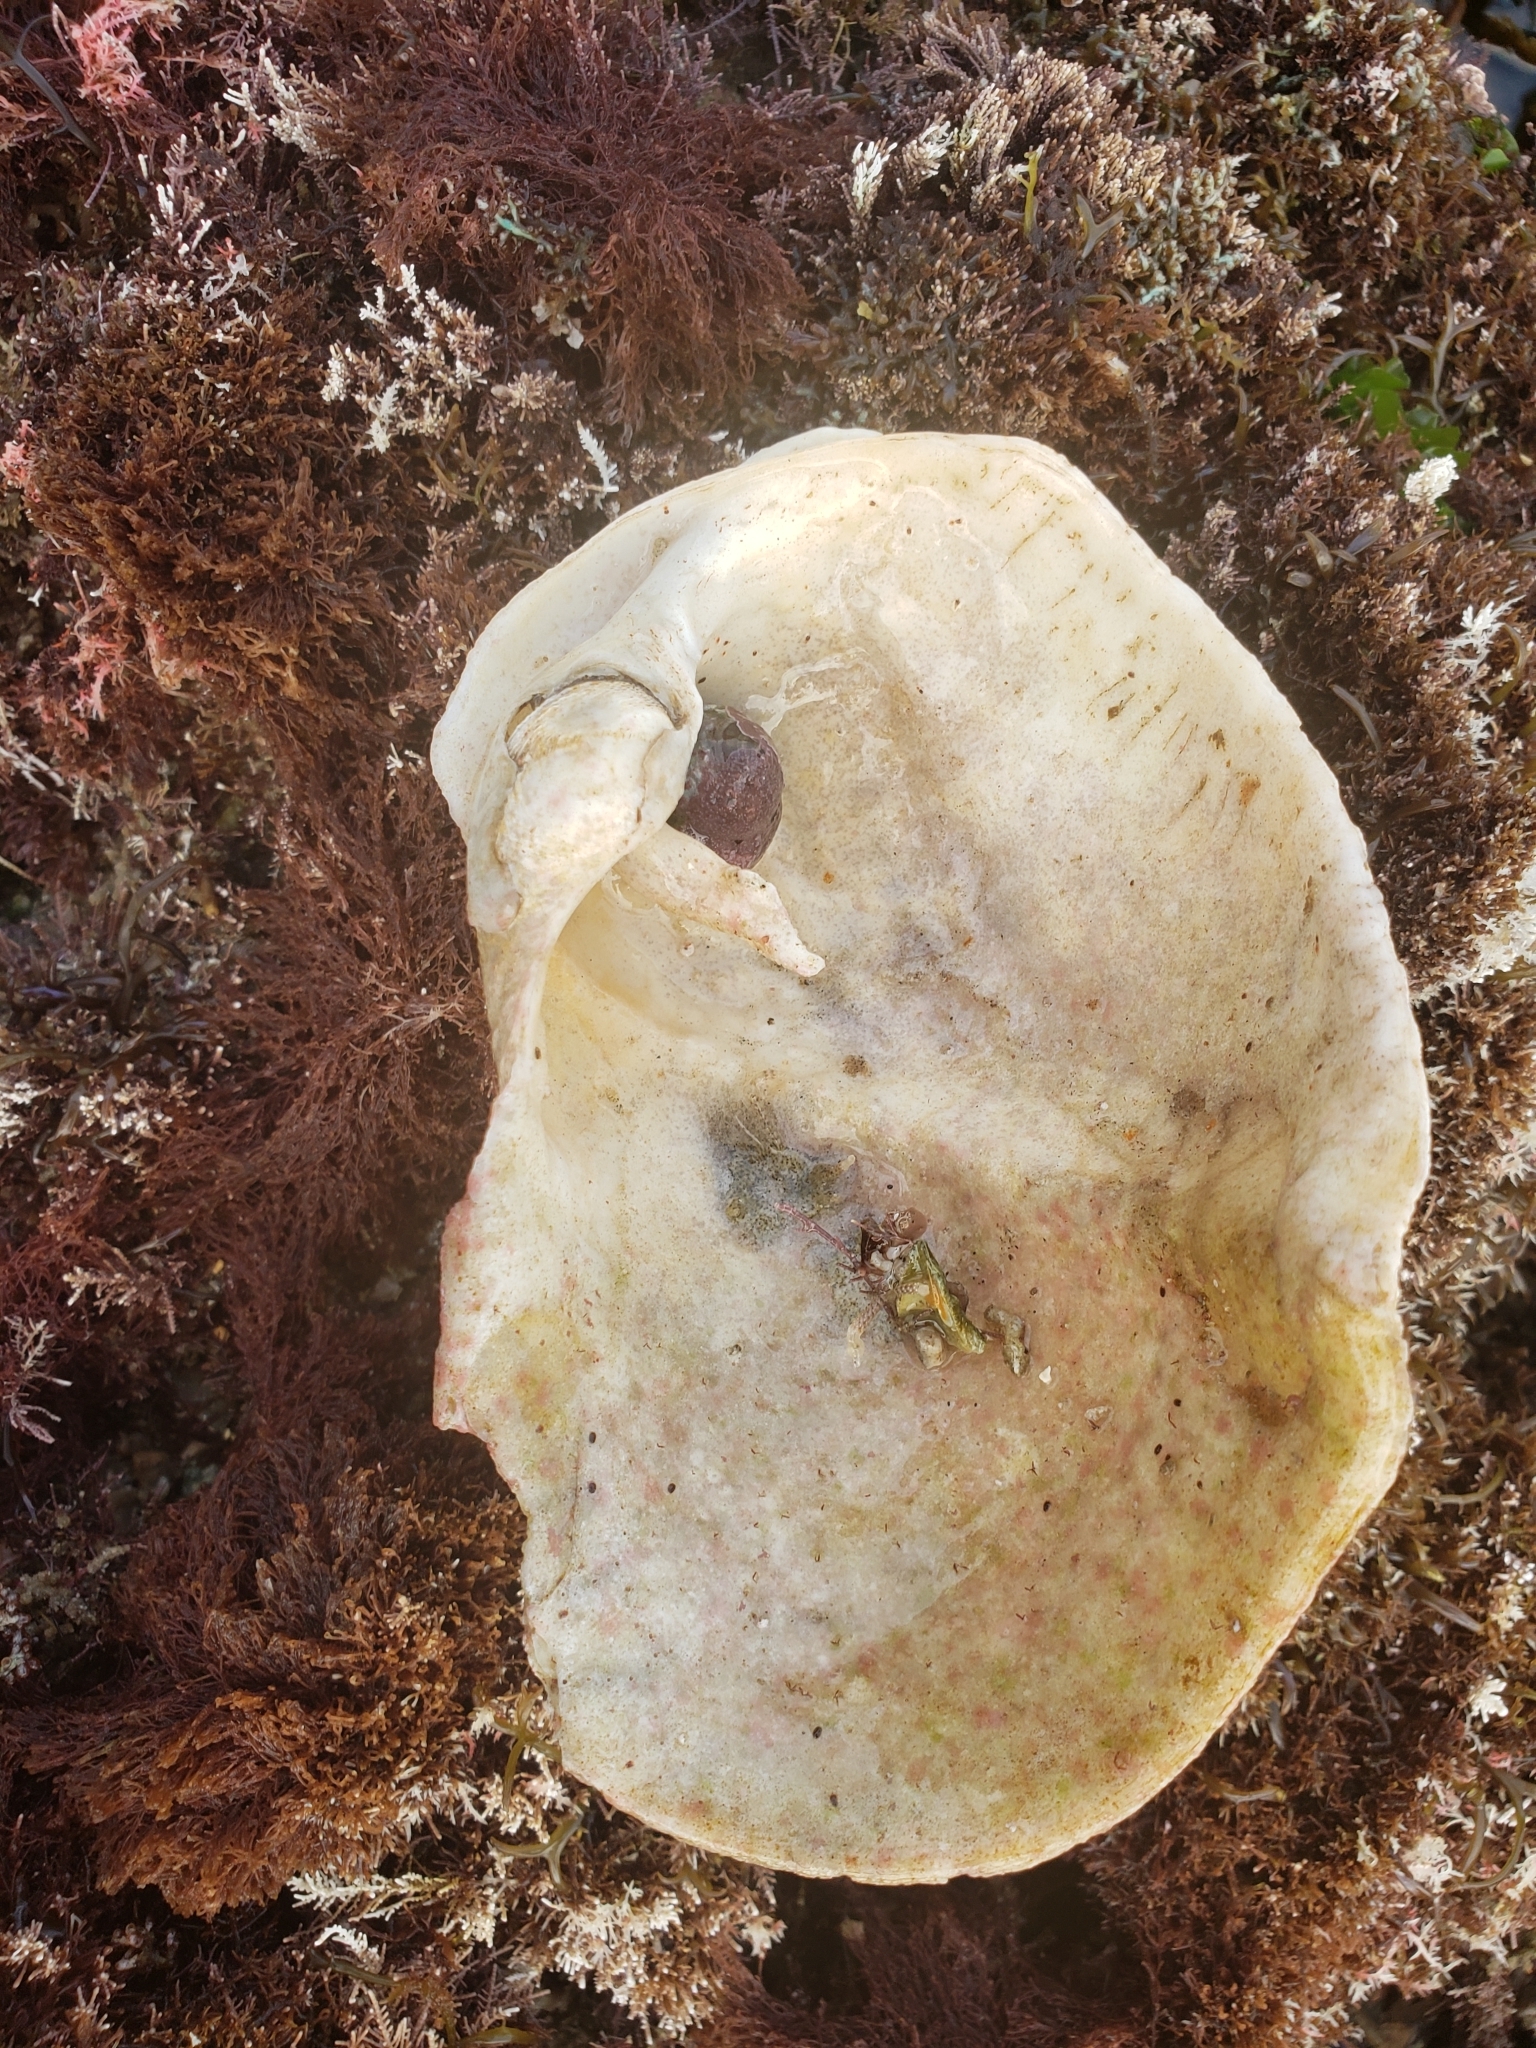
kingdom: Animalia
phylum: Mollusca
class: Bivalvia
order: Myida
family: Pholadidae
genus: Chaceia
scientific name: Chaceia ovoidea
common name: Wartneck piddock
